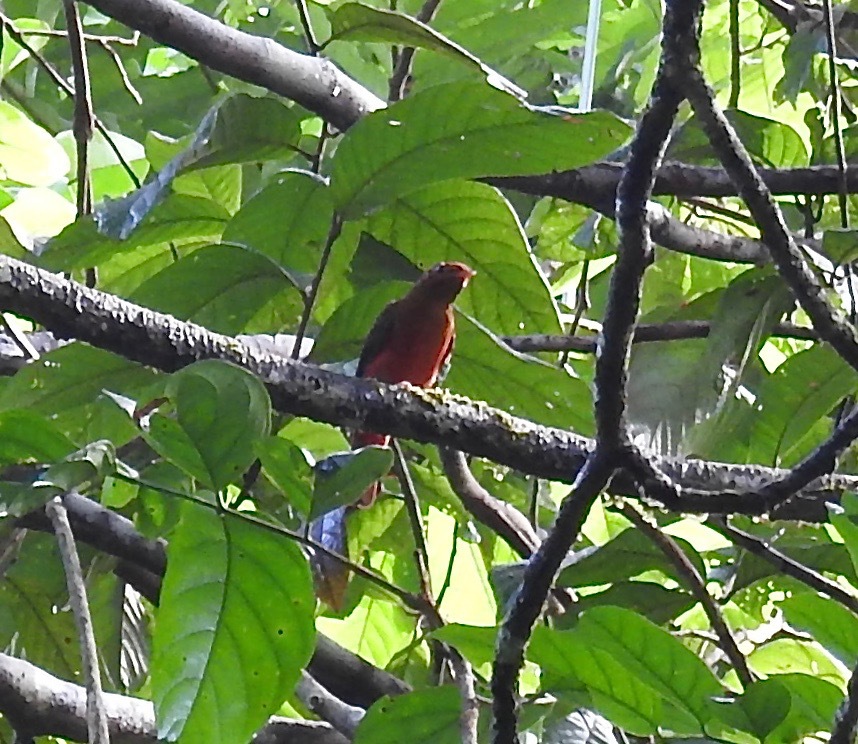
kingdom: Animalia
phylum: Chordata
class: Aves
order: Passeriformes
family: Cotingidae
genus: Phoenicircus
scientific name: Phoenicircus carnifex
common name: Guianan red cotinga
